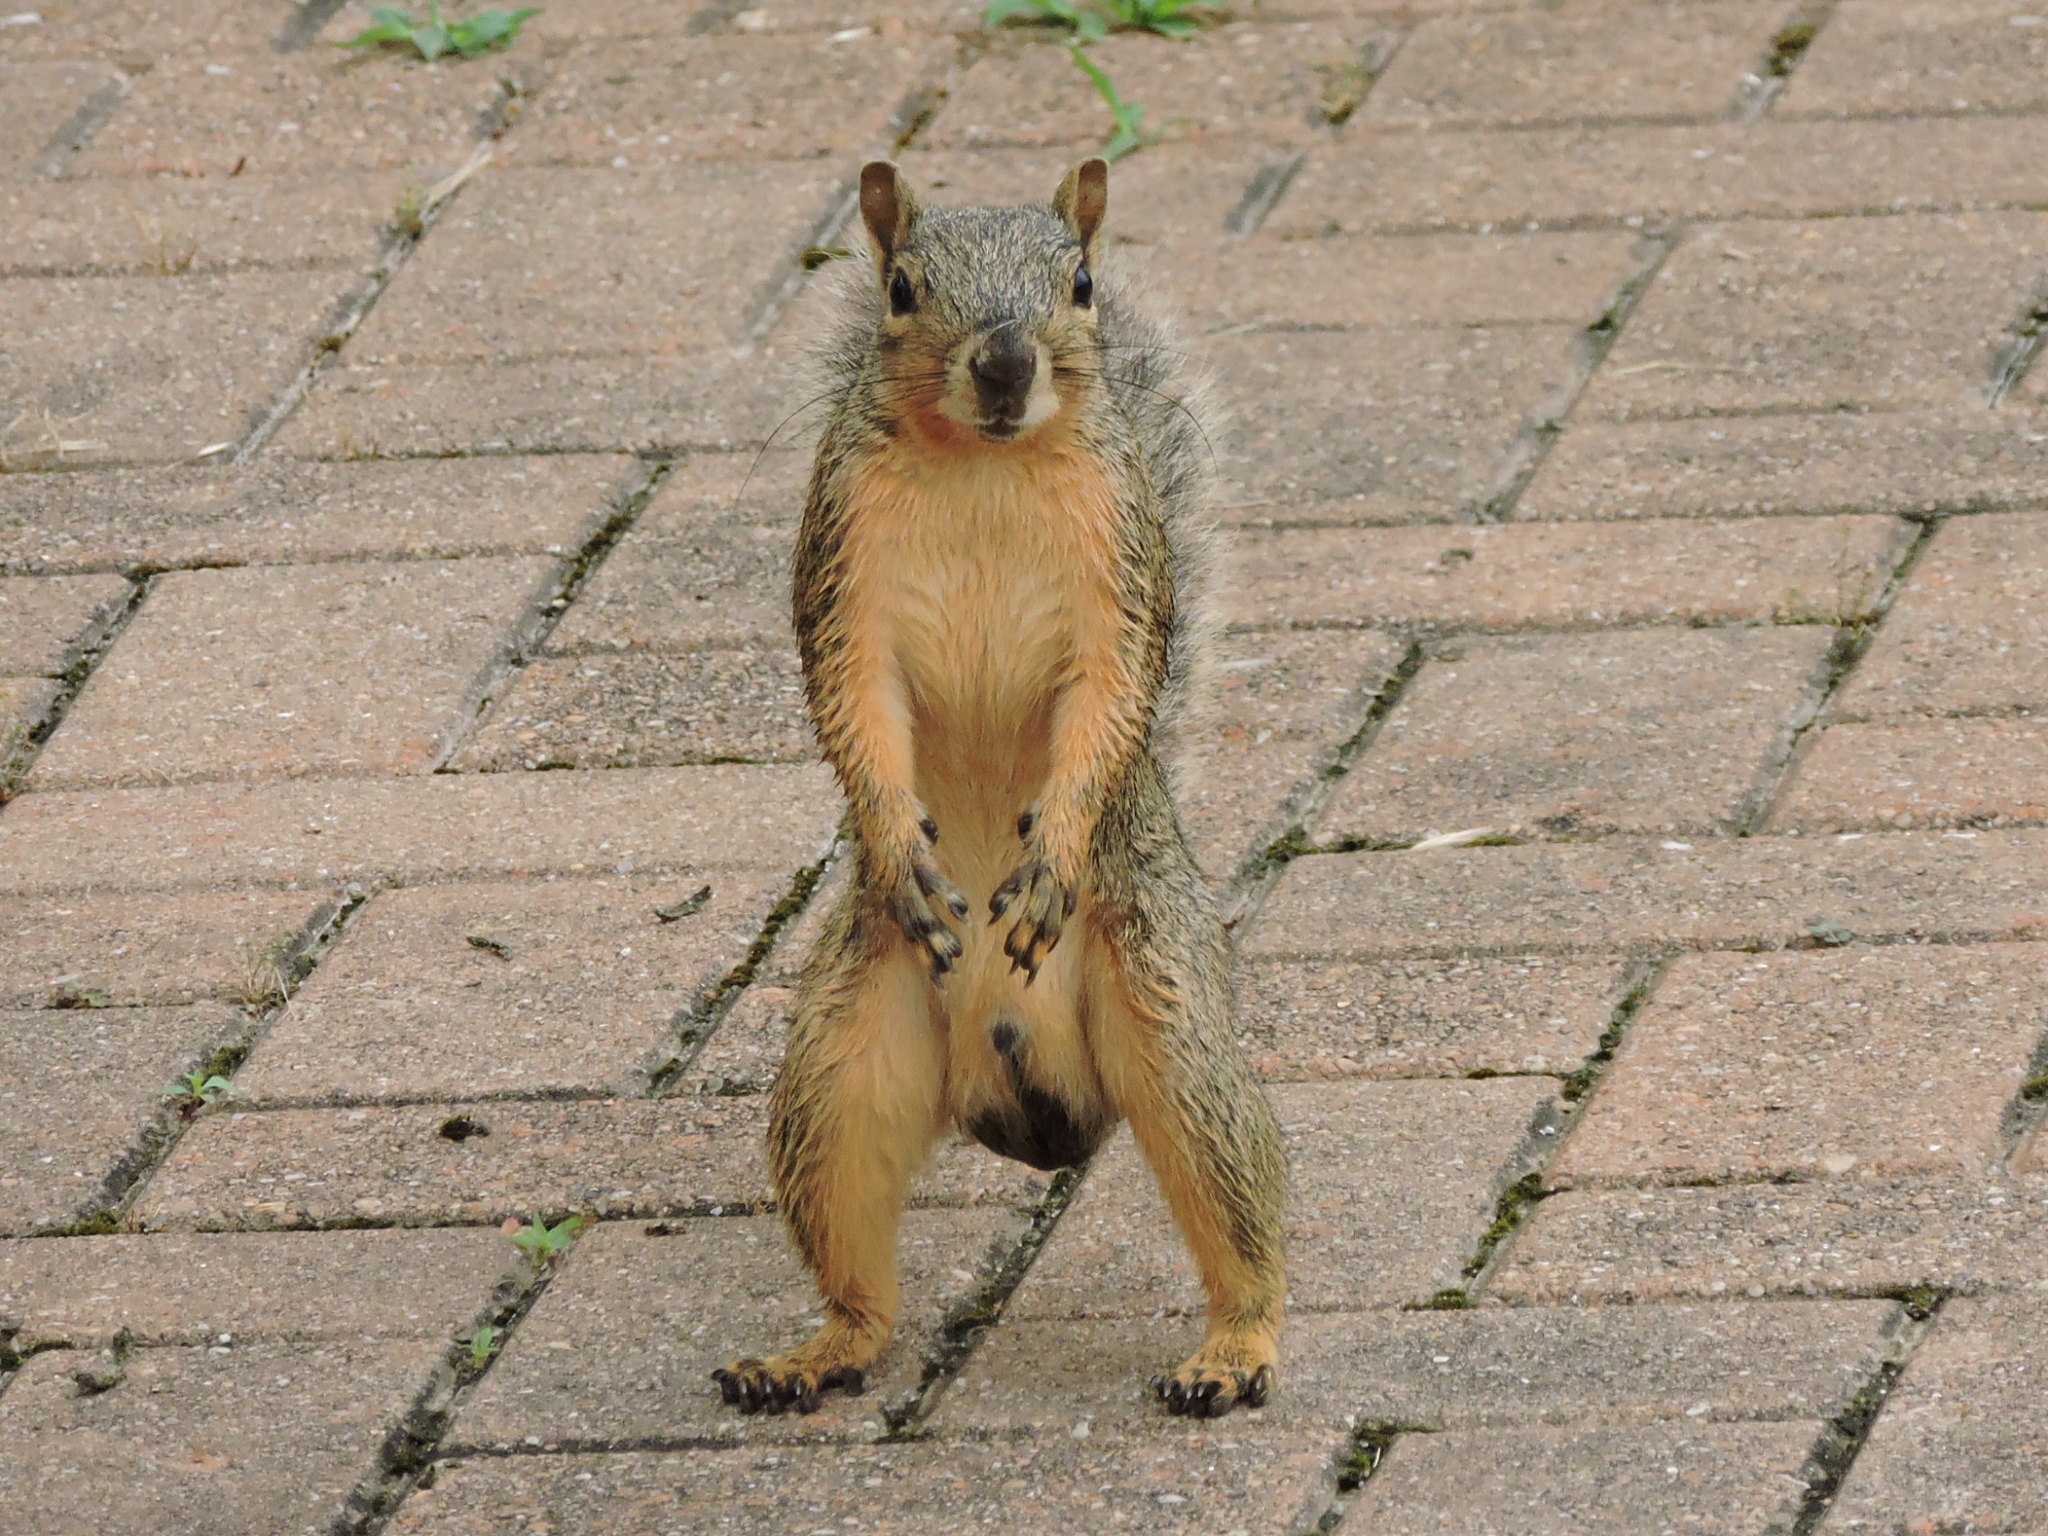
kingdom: Animalia
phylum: Chordata
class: Mammalia
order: Rodentia
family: Sciuridae
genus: Sciurus
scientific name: Sciurus niger
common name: Fox squirrel
